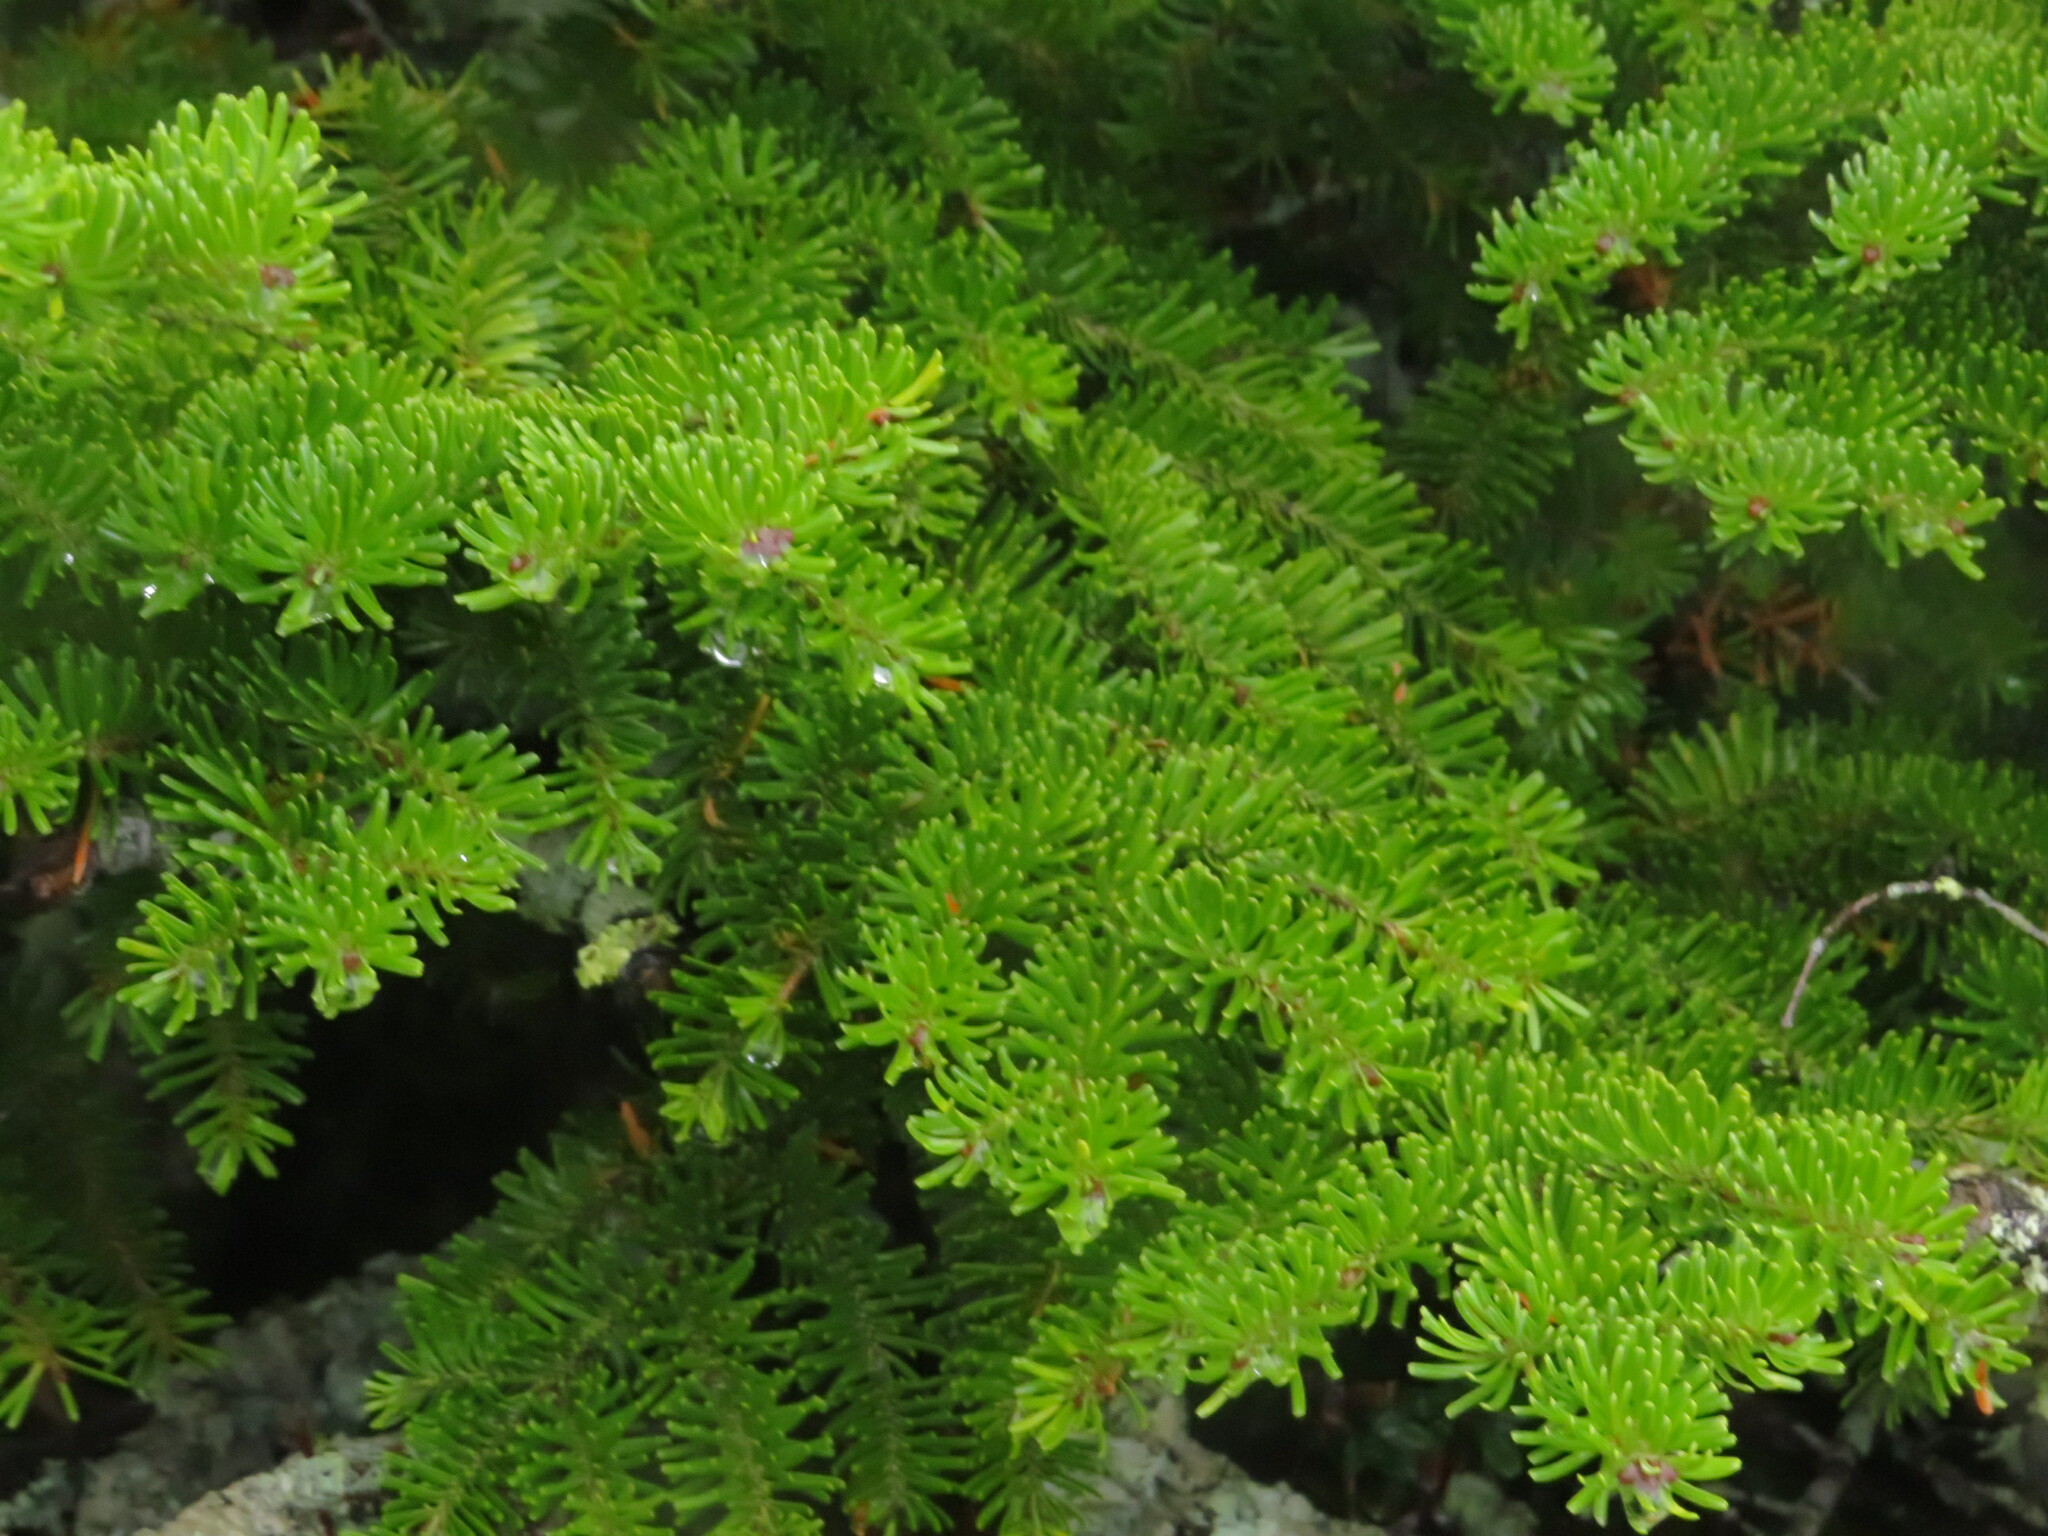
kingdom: Plantae
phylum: Tracheophyta
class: Pinopsida
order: Pinales
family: Pinaceae
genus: Abies
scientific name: Abies balsamea
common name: Balsam fir
